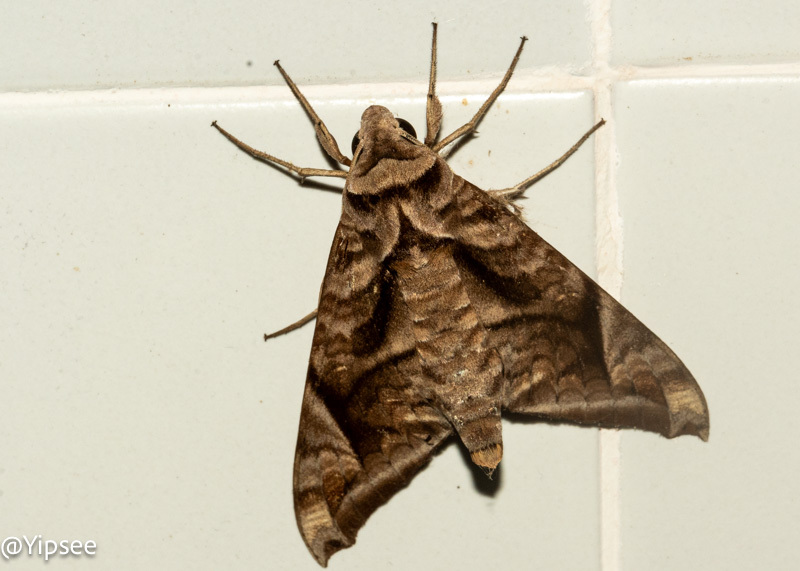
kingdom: Animalia
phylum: Arthropoda
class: Insecta
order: Lepidoptera
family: Sphingidae
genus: Acosmeryx
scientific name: Acosmeryx naga
